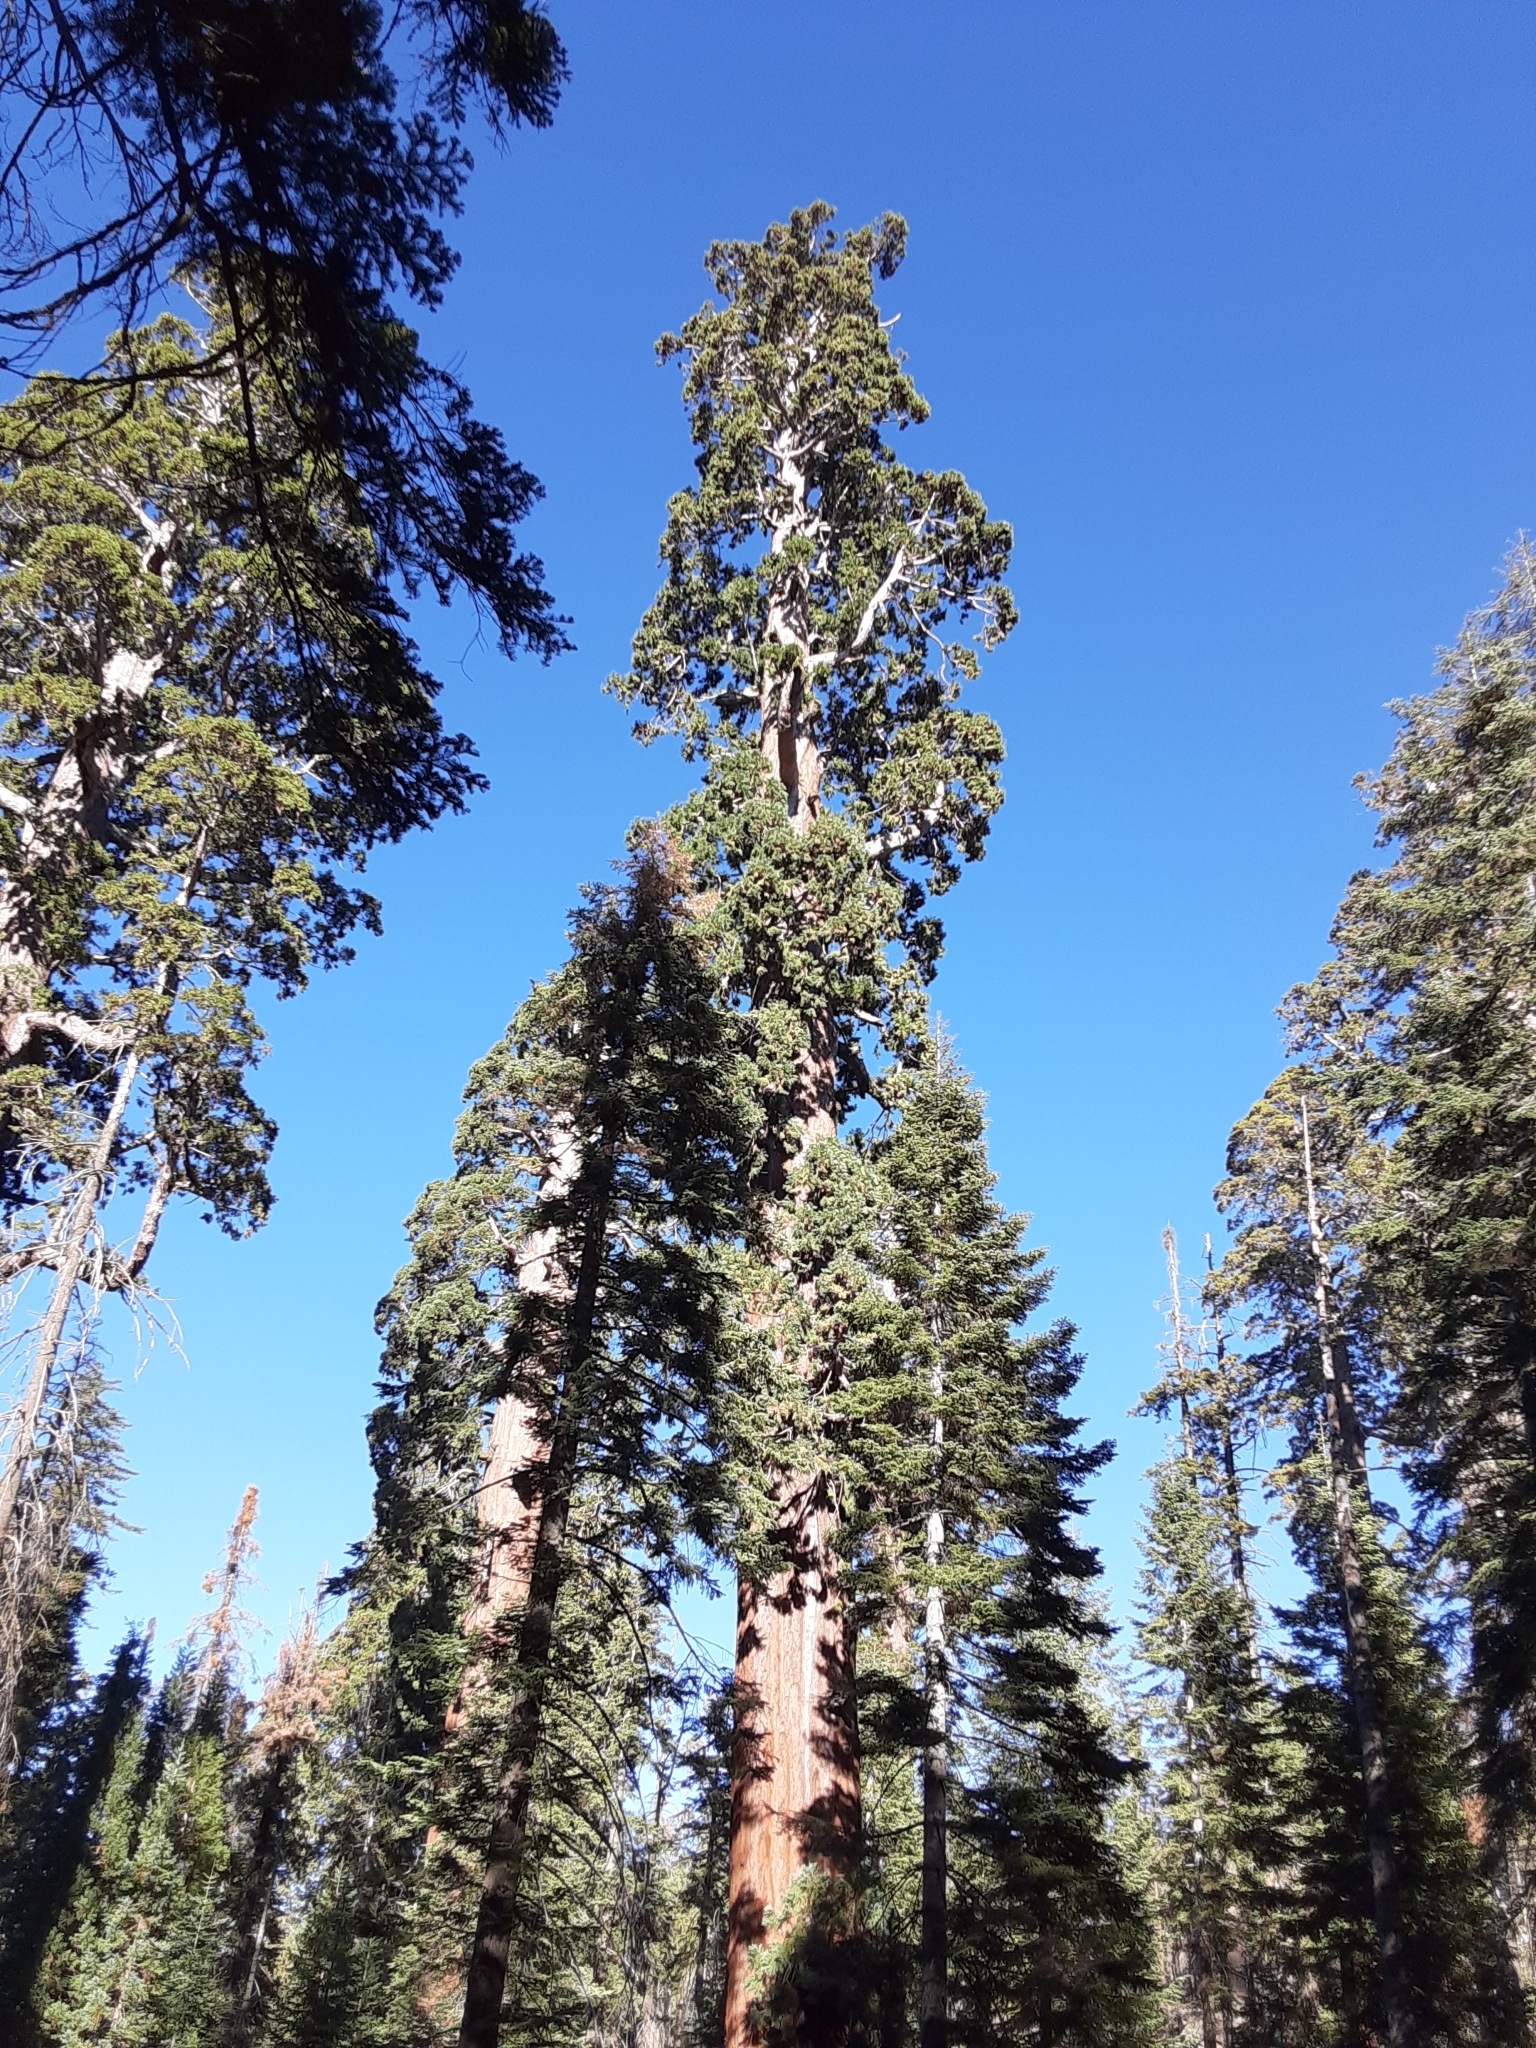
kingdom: Plantae
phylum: Tracheophyta
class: Pinopsida
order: Pinales
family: Cupressaceae
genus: Sequoiadendron
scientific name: Sequoiadendron giganteum
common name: Wellingtonia
